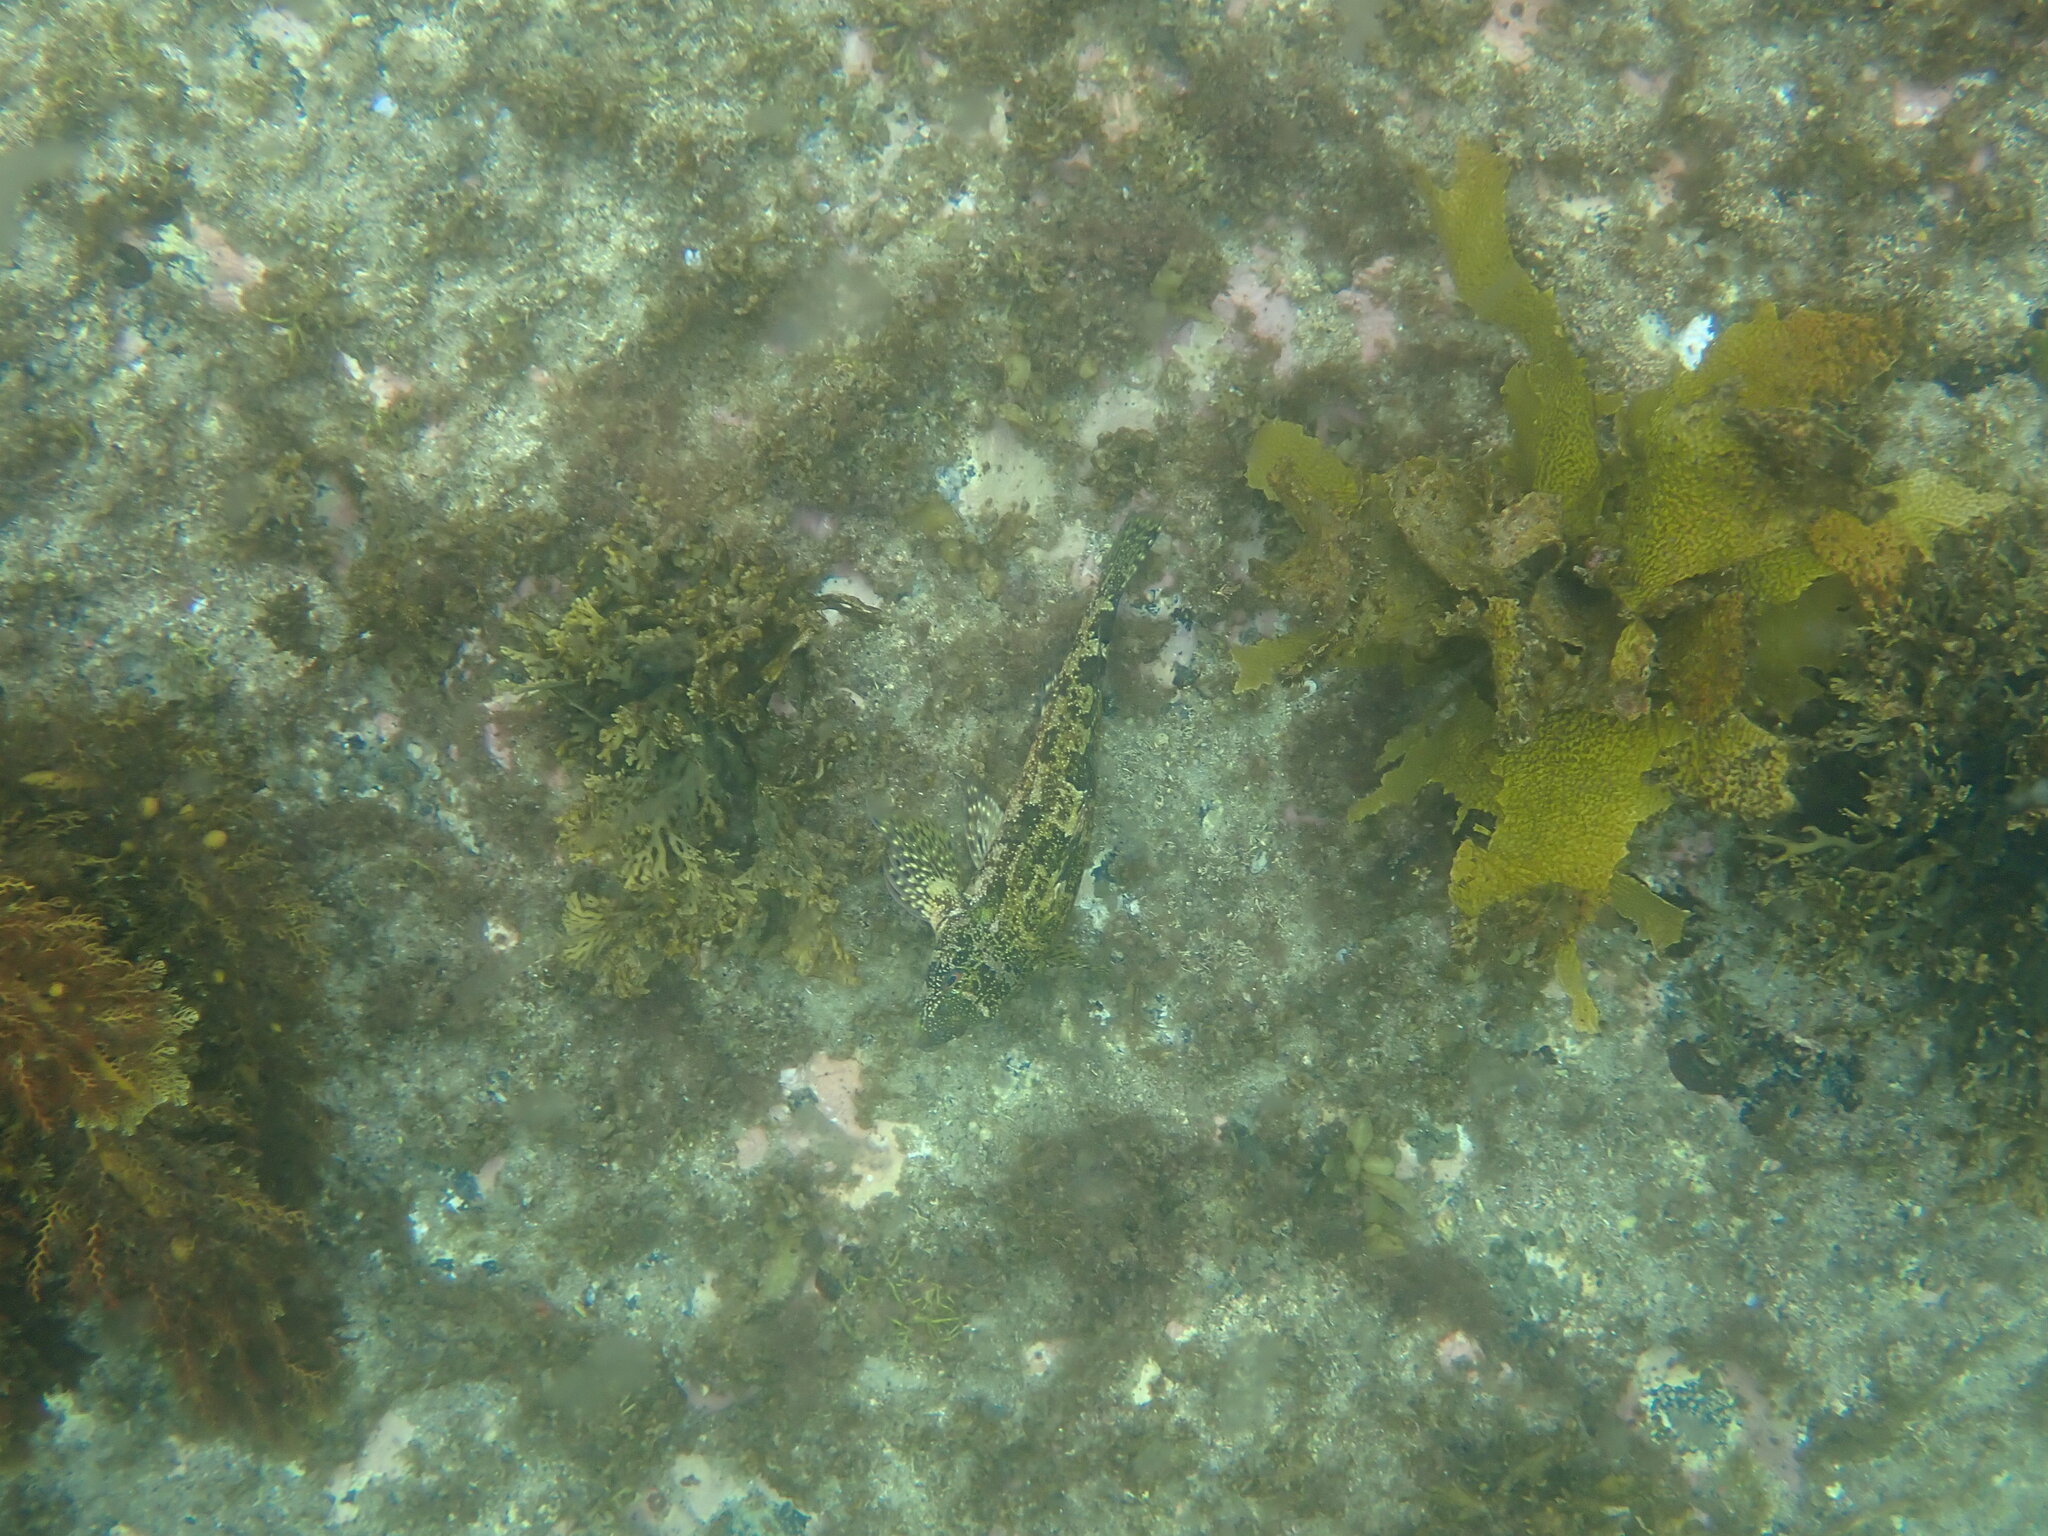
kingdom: Animalia
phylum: Chordata
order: Perciformes
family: Chironemidae
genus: Chironemus
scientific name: Chironemus marmoratus
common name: Kelpfish
